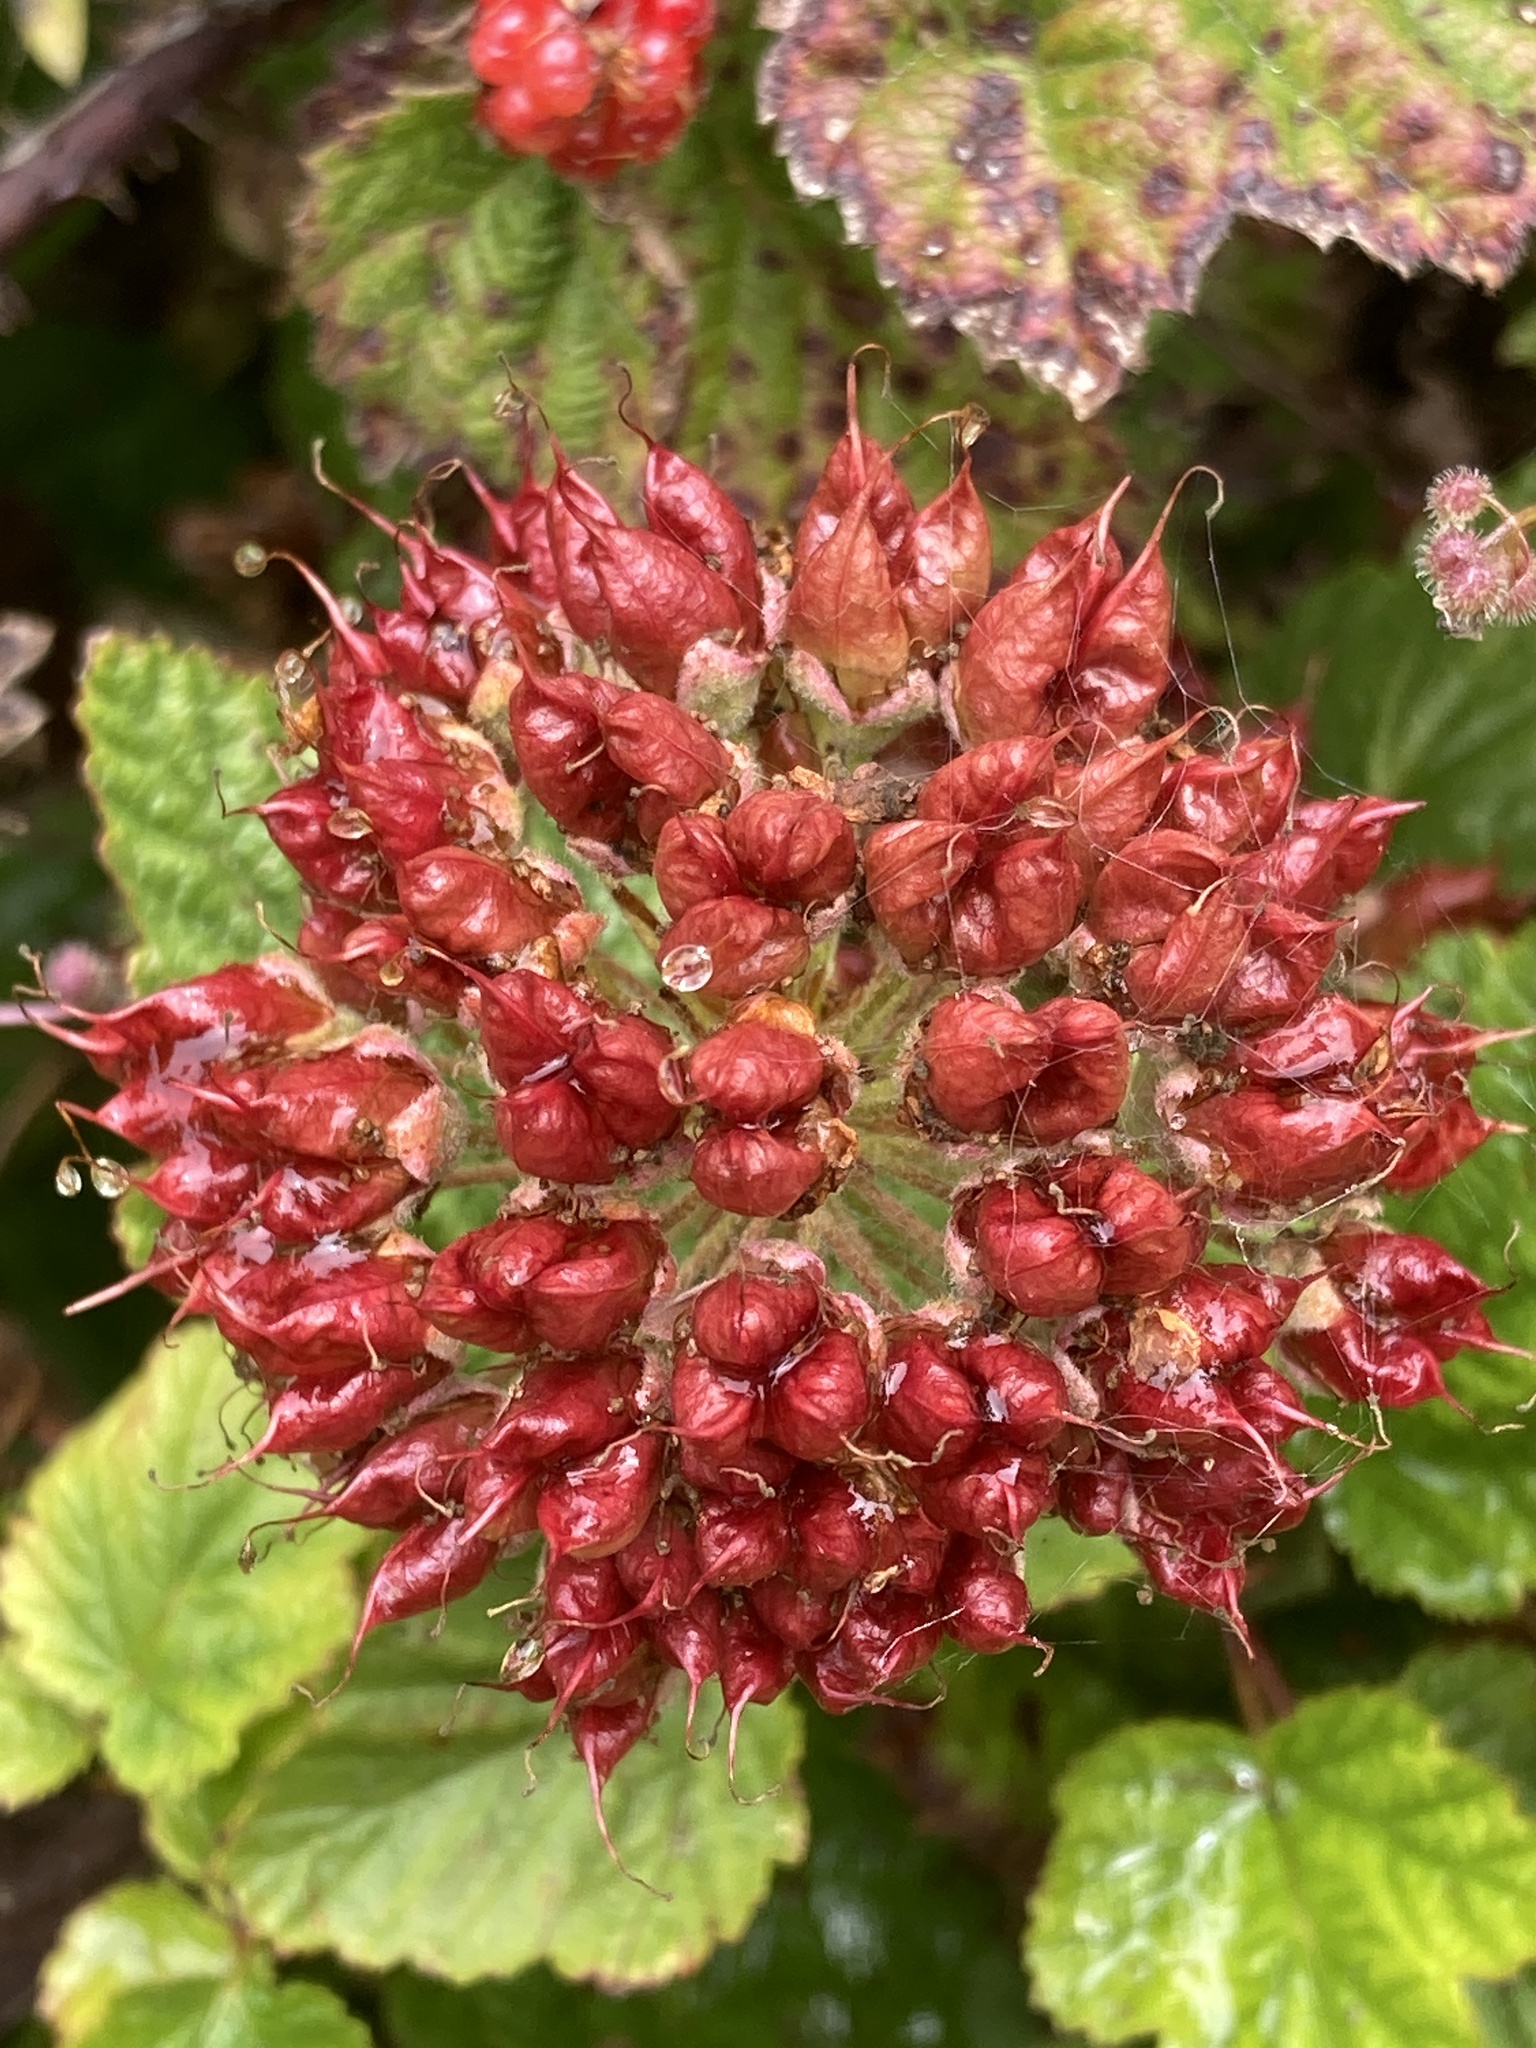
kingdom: Plantae
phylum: Tracheophyta
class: Magnoliopsida
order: Rosales
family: Rosaceae
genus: Physocarpus
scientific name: Physocarpus capitatus
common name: Pacific ninebark
